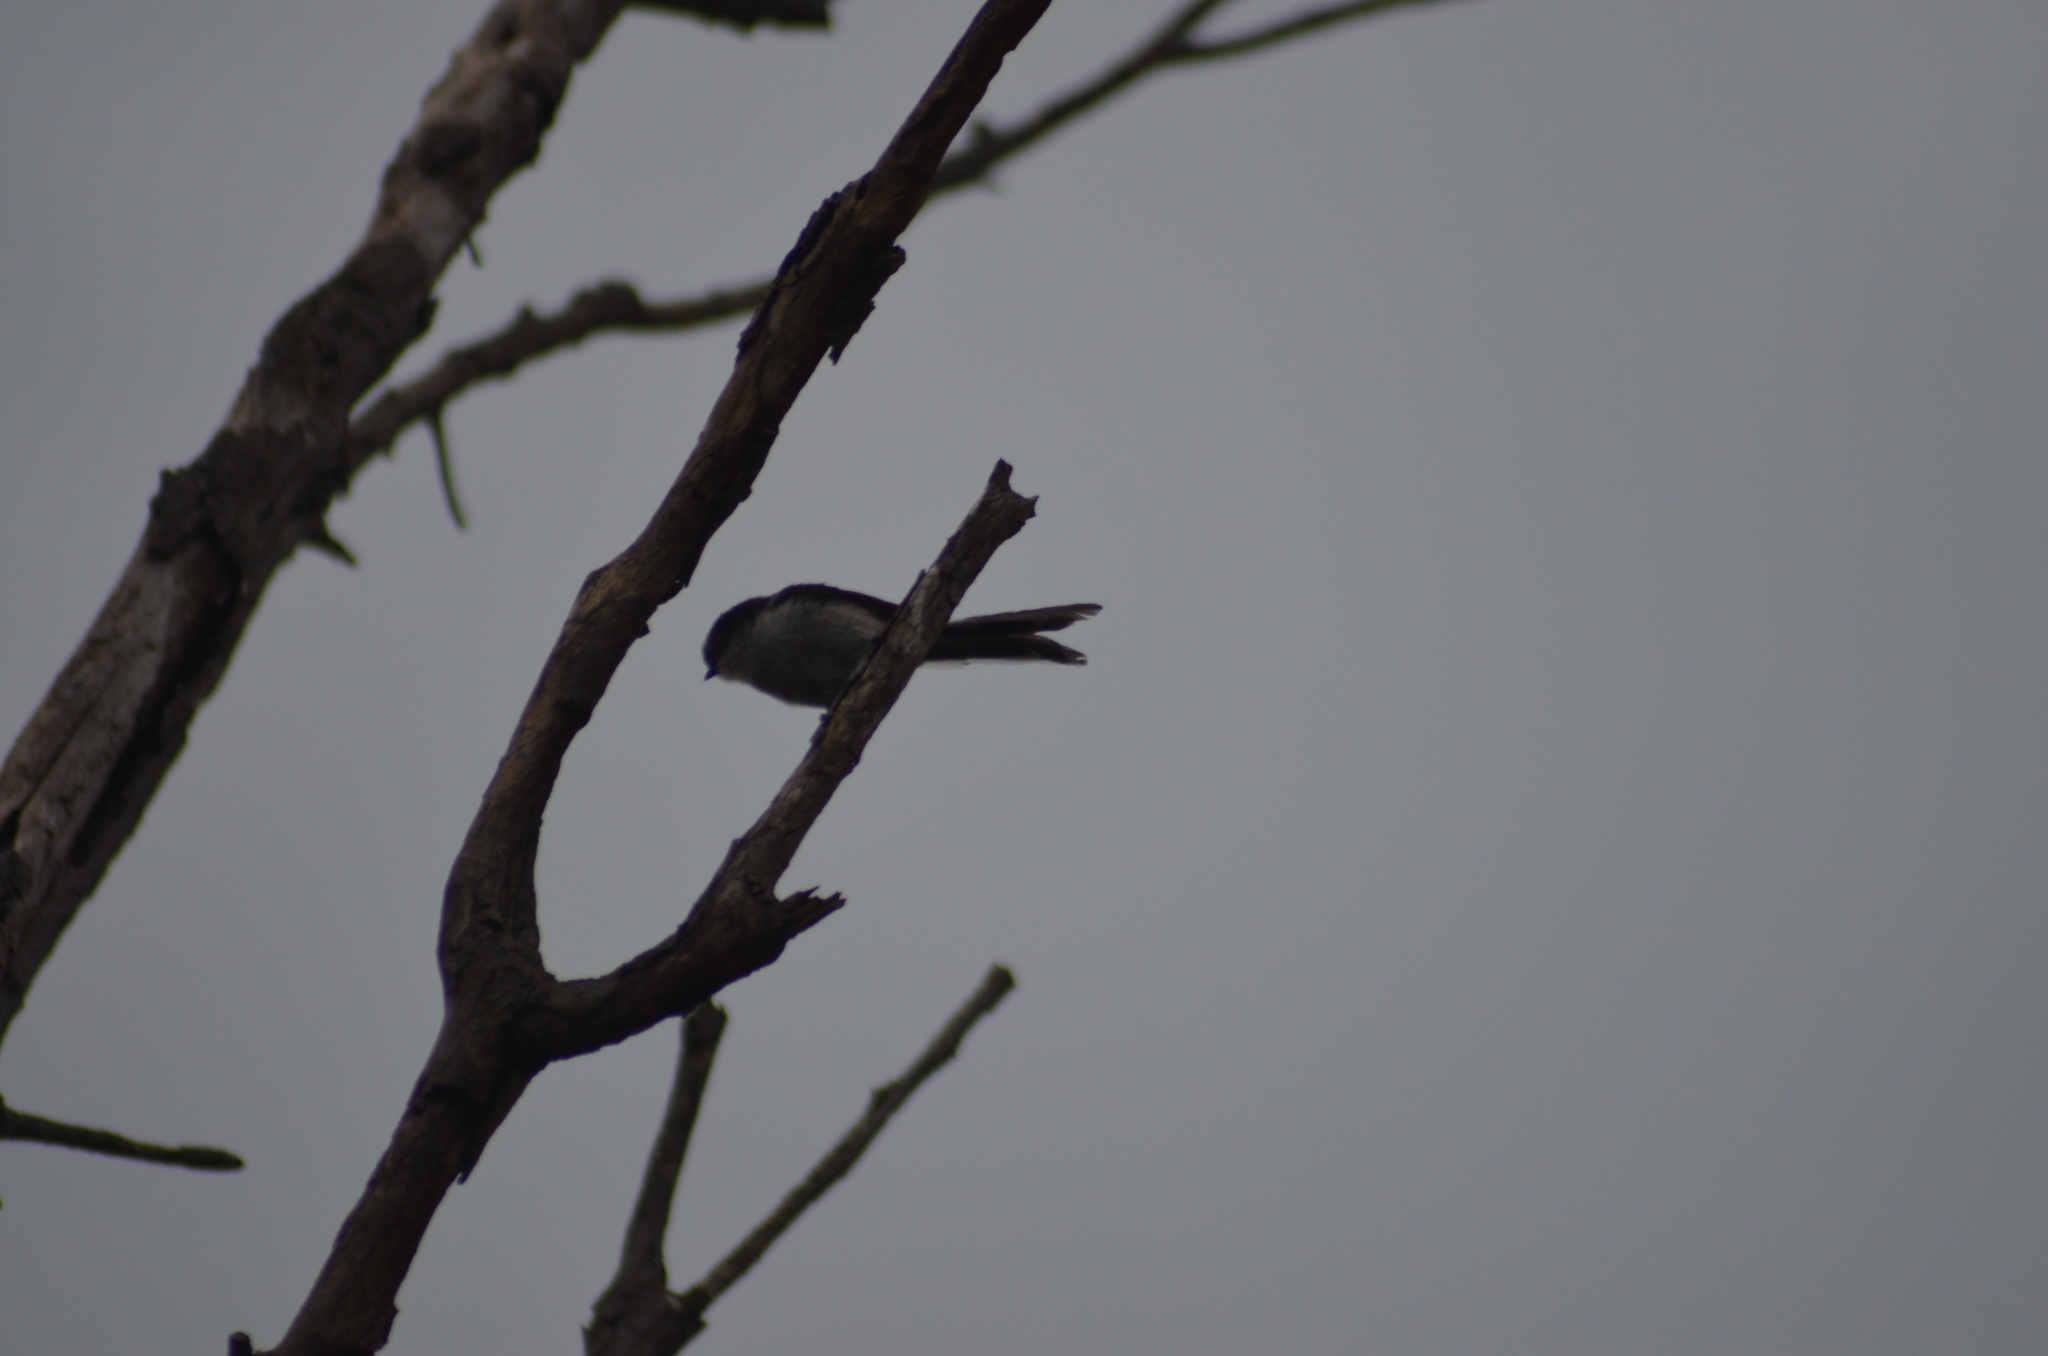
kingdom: Animalia
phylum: Chordata
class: Aves
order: Passeriformes
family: Aegithalidae
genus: Aegithalos
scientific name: Aegithalos caudatus
